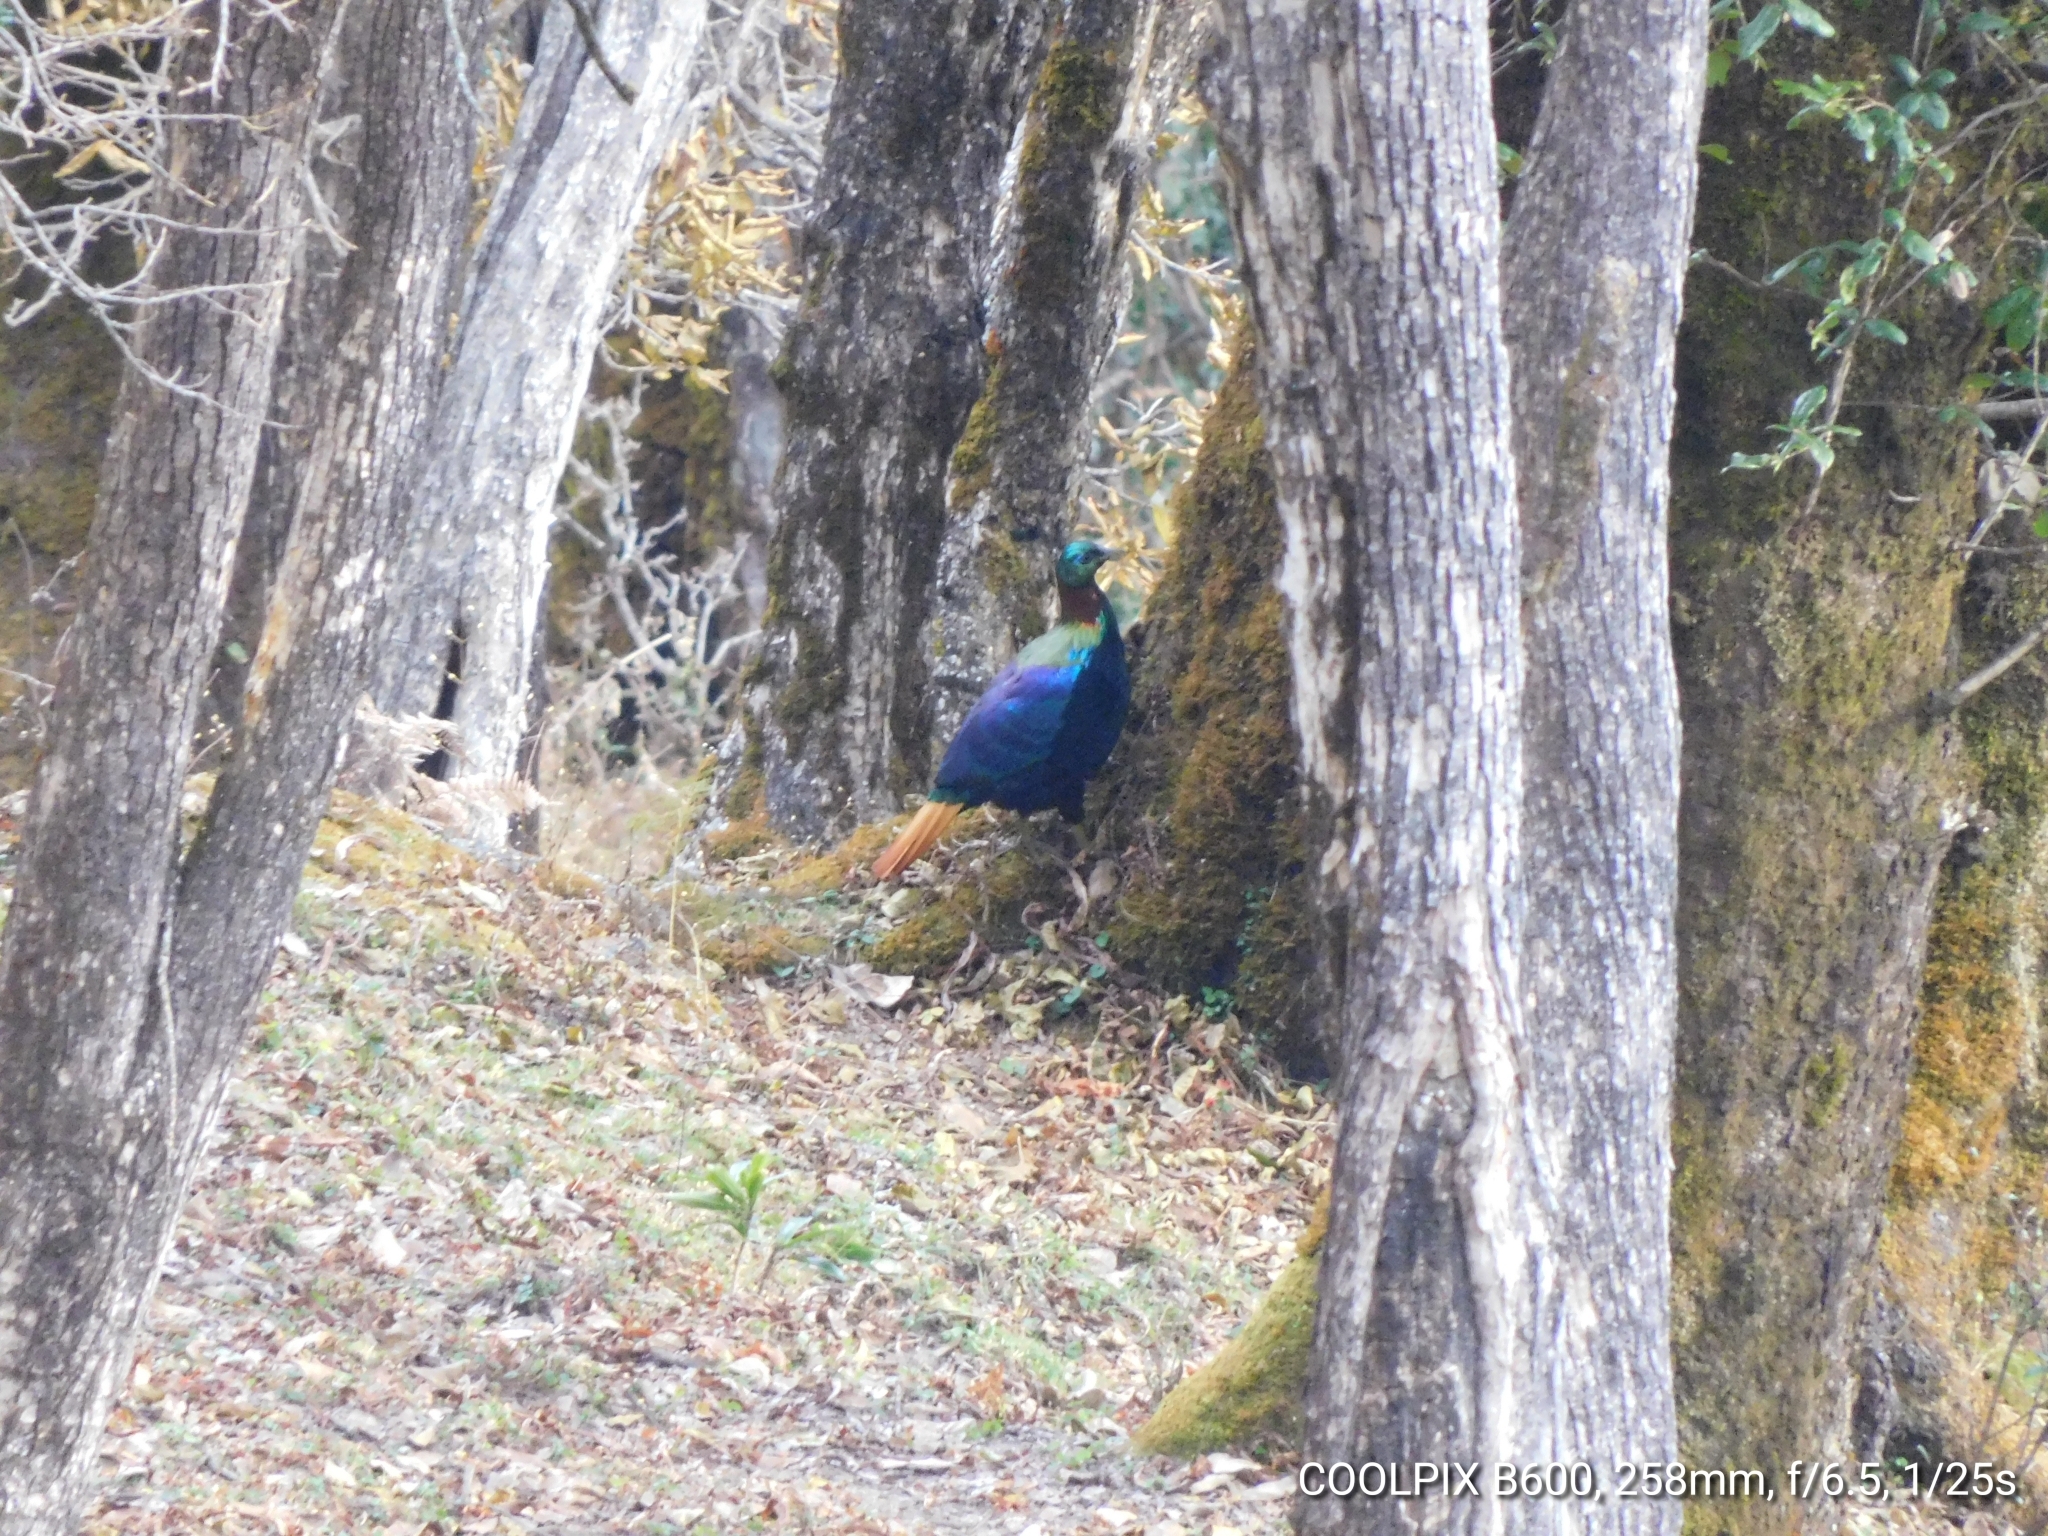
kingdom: Animalia
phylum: Chordata
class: Aves
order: Galliformes
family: Phasianidae
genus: Lophophorus
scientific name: Lophophorus impejanus
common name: Himalayan monal
